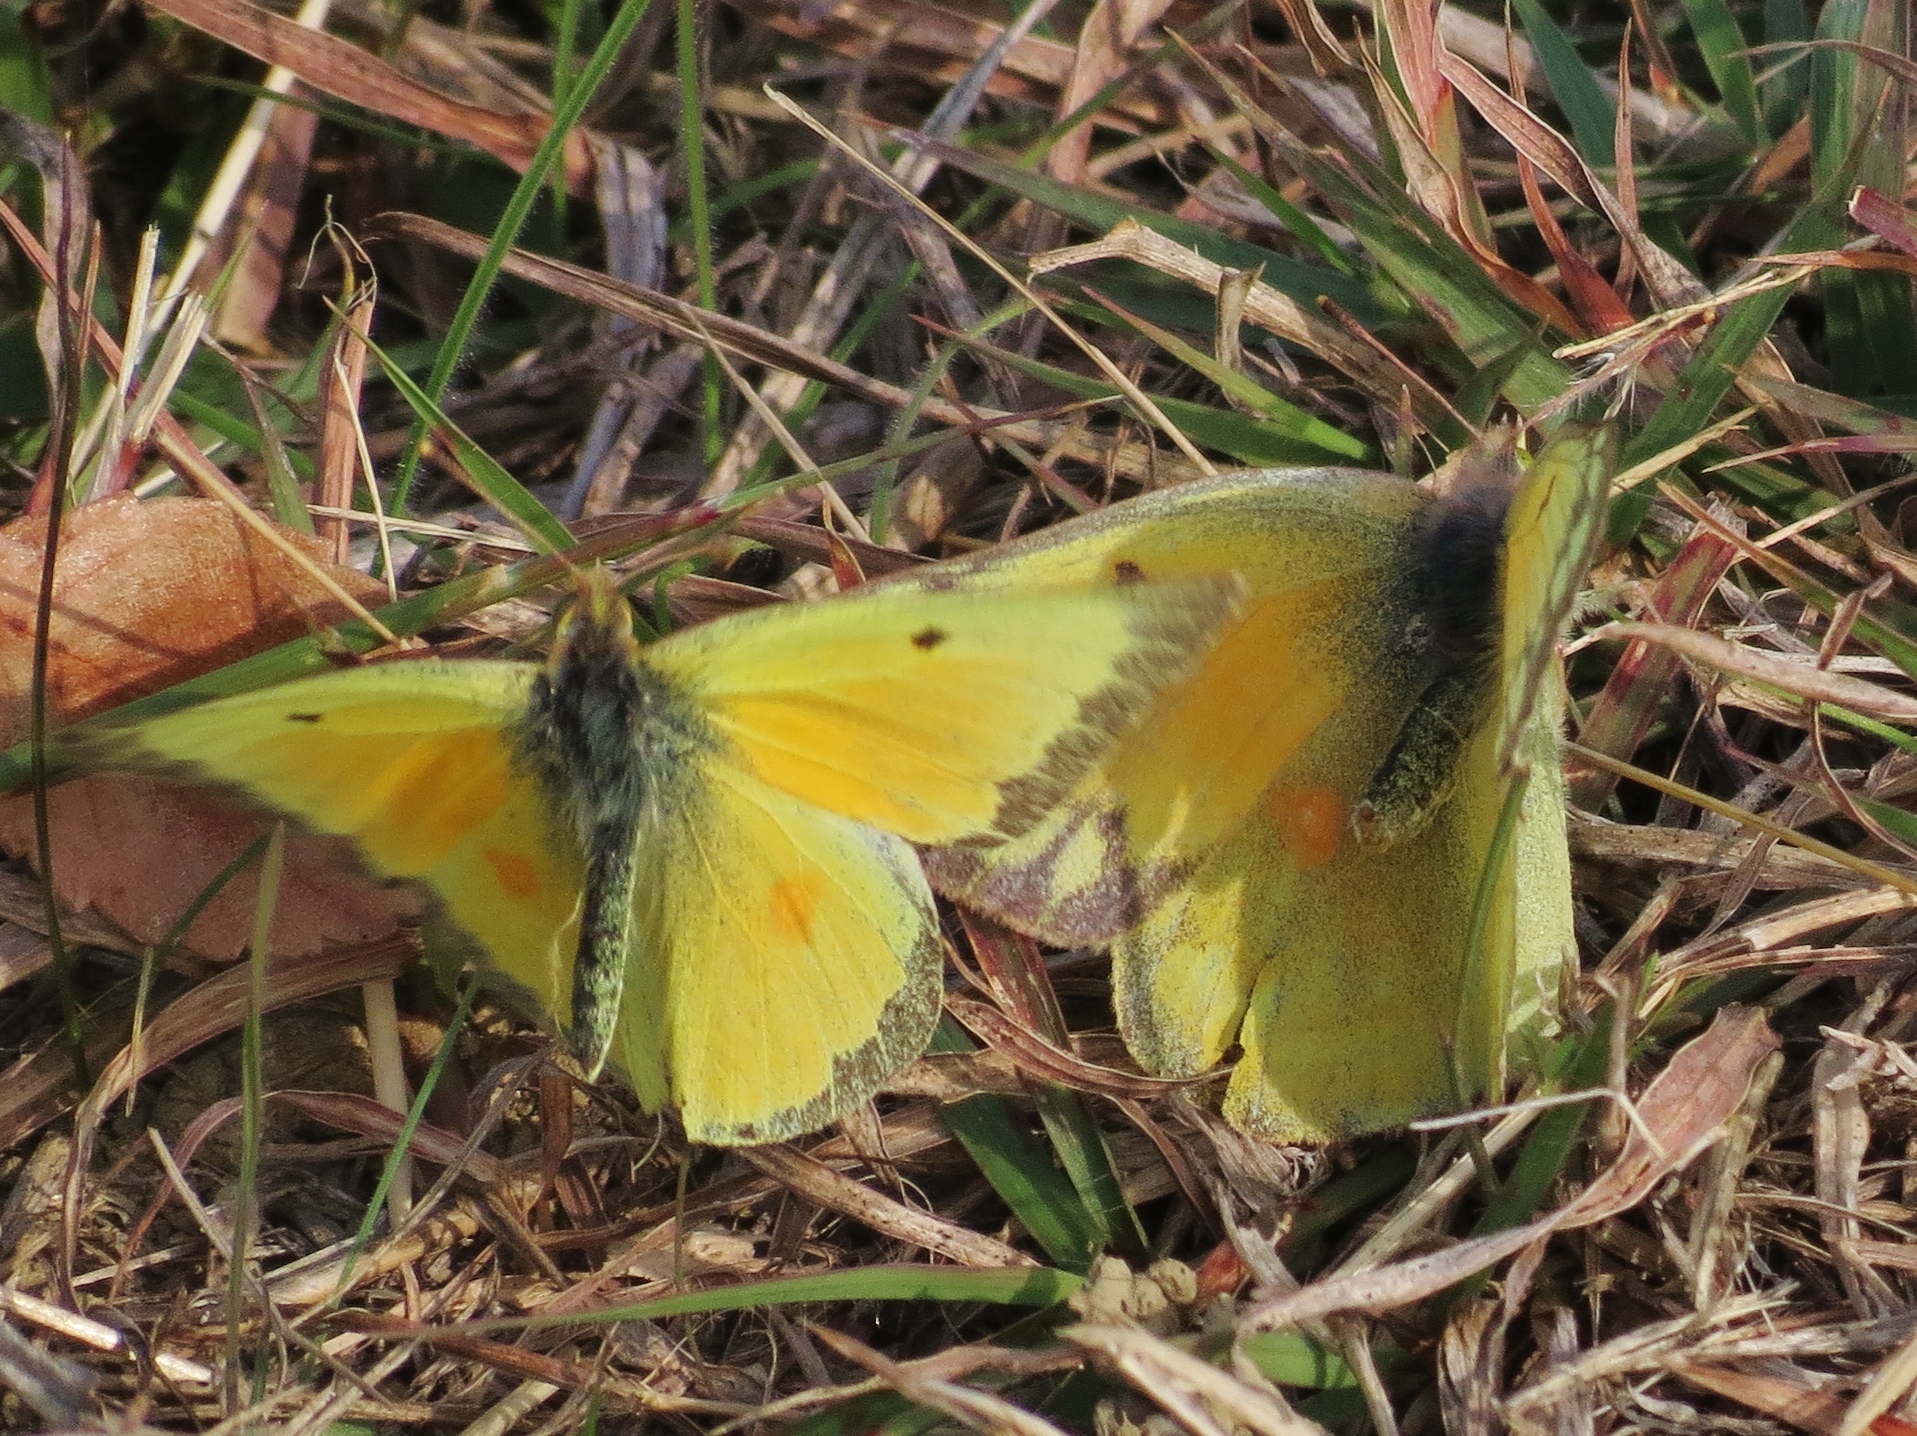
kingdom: Animalia
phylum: Arthropoda
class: Insecta
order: Lepidoptera
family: Pieridae
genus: Colias
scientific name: Colias eurytheme
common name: Alfalfa butterfly
